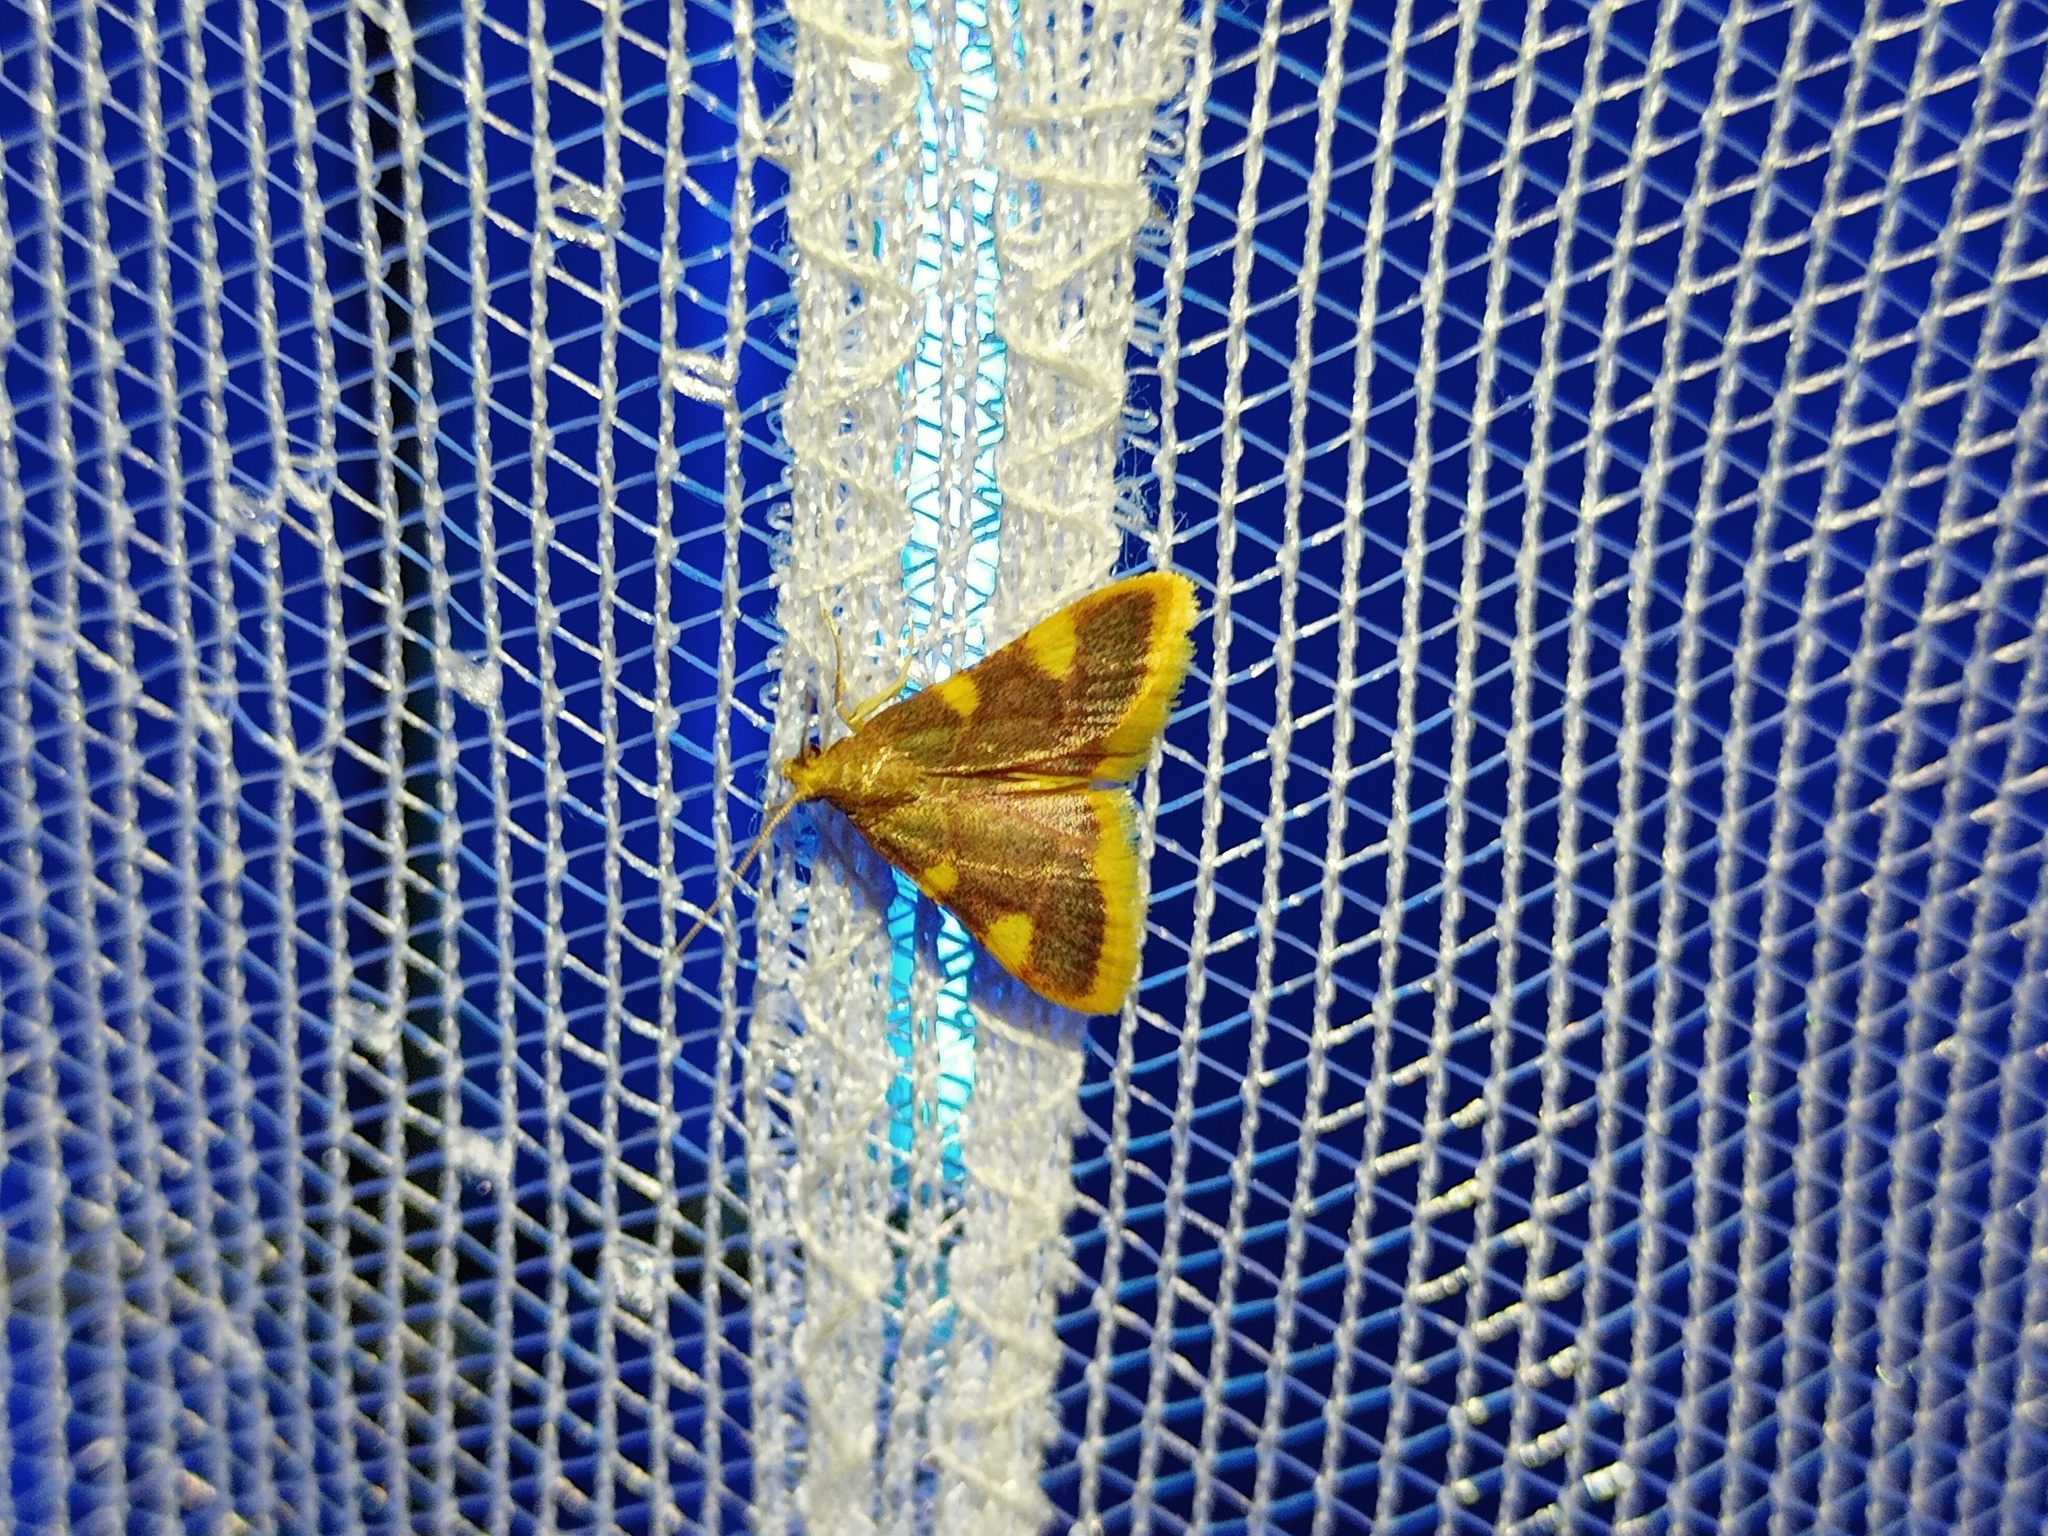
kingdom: Animalia
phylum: Arthropoda
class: Insecta
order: Lepidoptera
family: Pyralidae
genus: Hypsopygia
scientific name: Hypsopygia costalis
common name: Gold triangle
